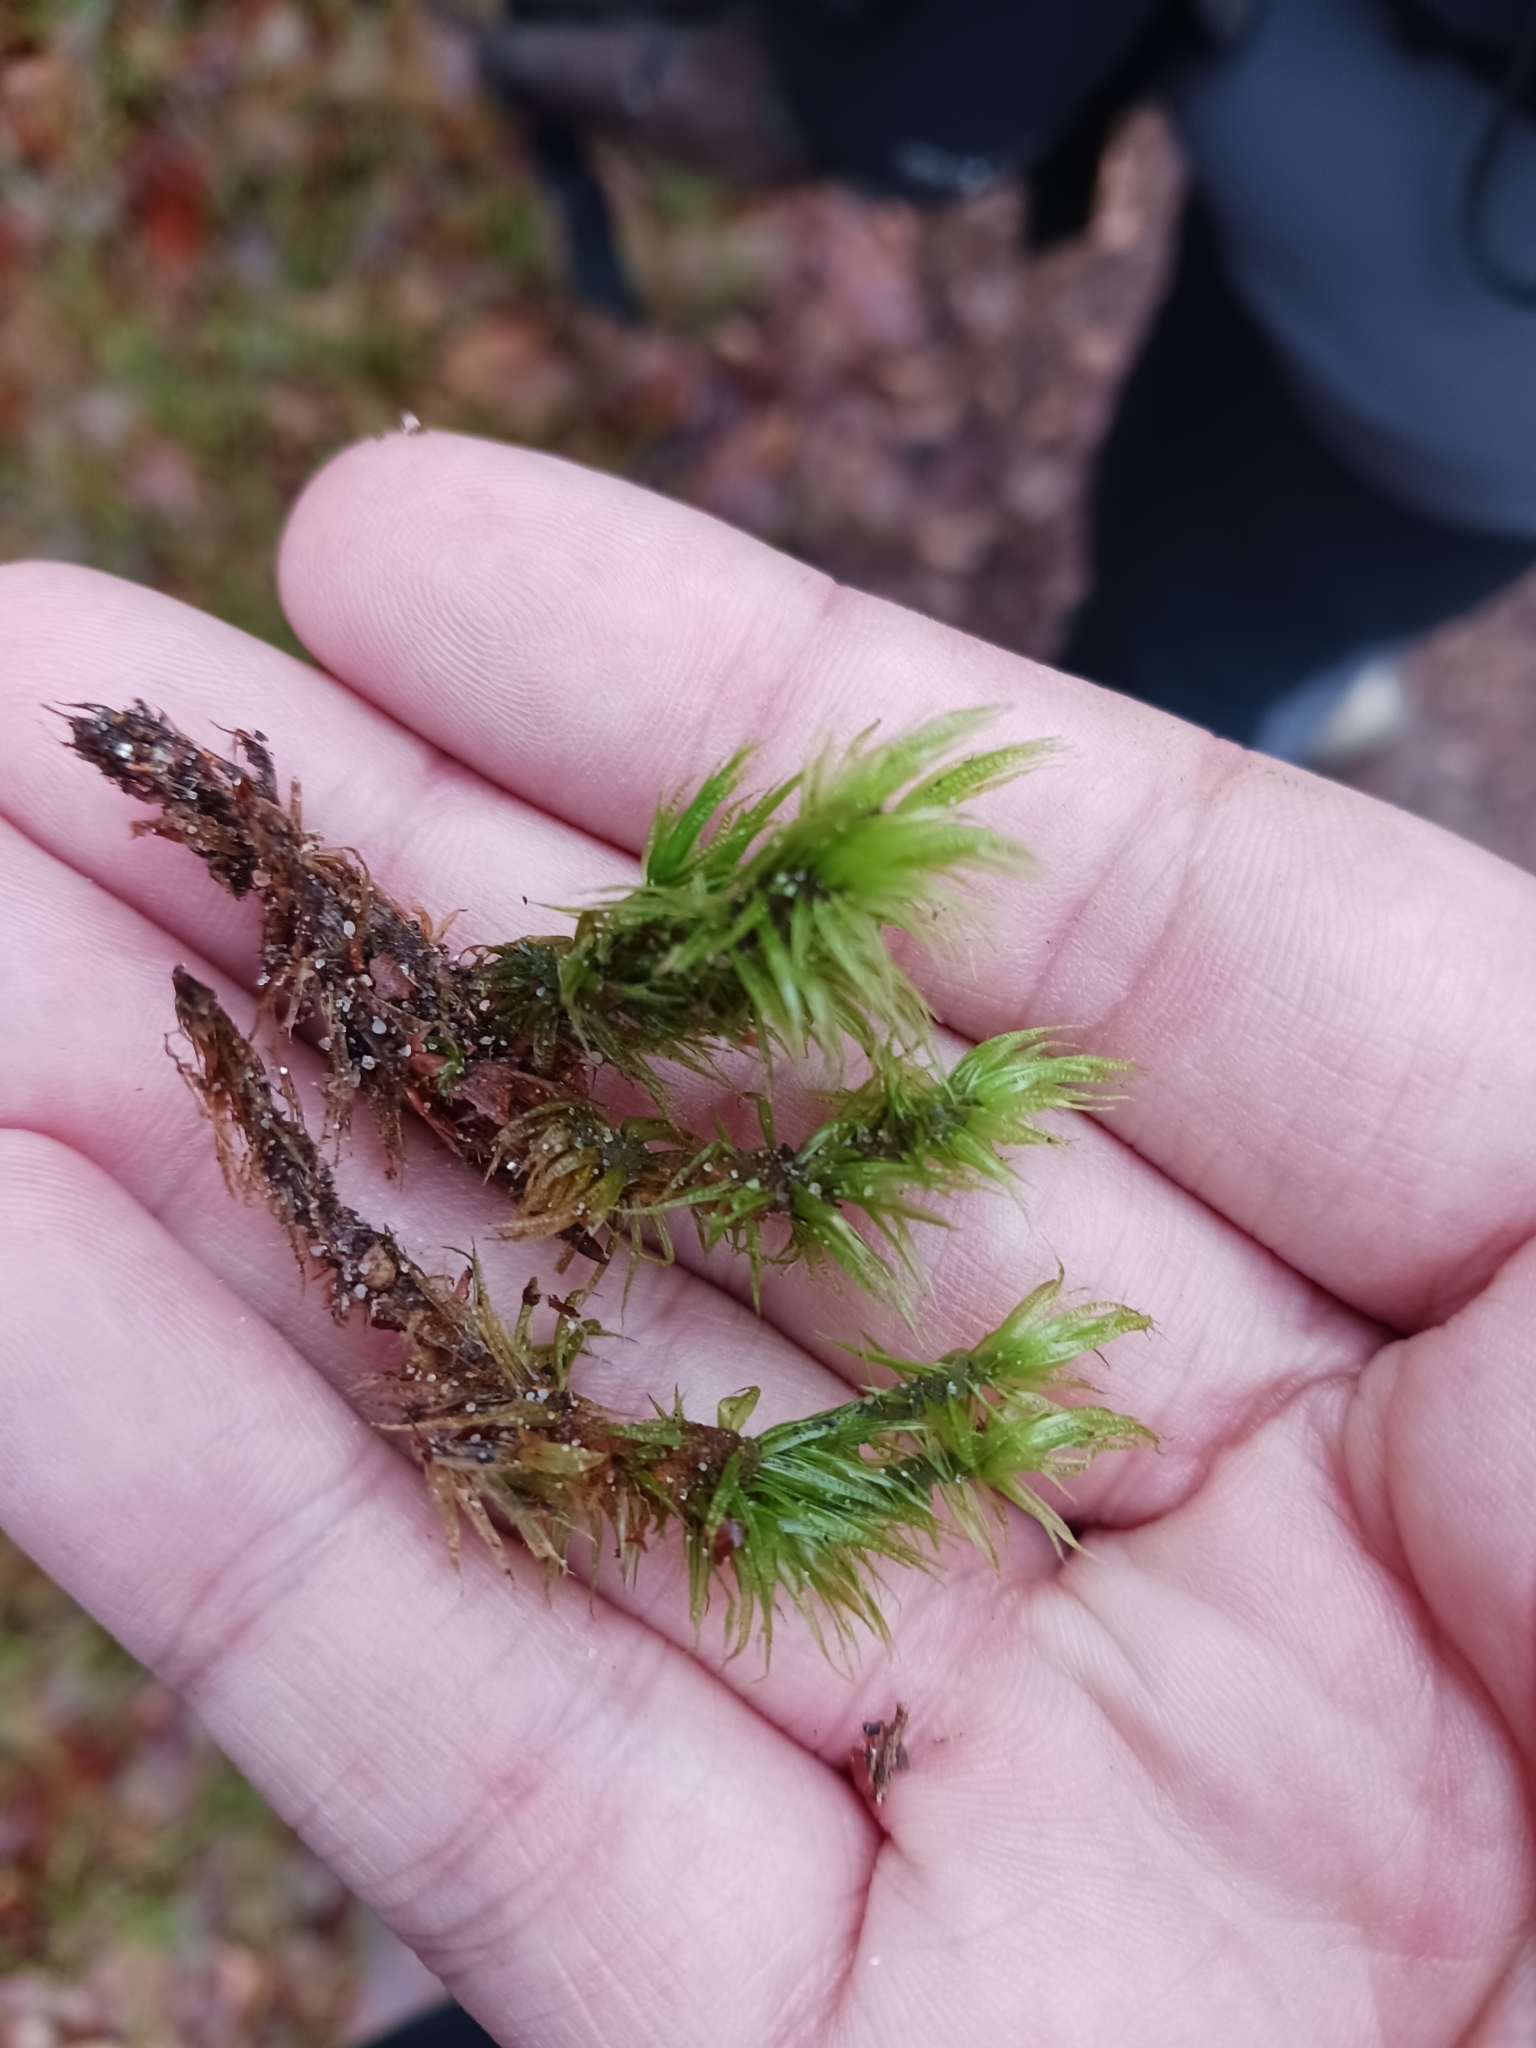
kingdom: Plantae
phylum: Bryophyta
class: Bryopsida
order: Dicranales
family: Dicranaceae
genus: Dicranum
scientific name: Dicranum polysetum
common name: Rugose fork-moss
